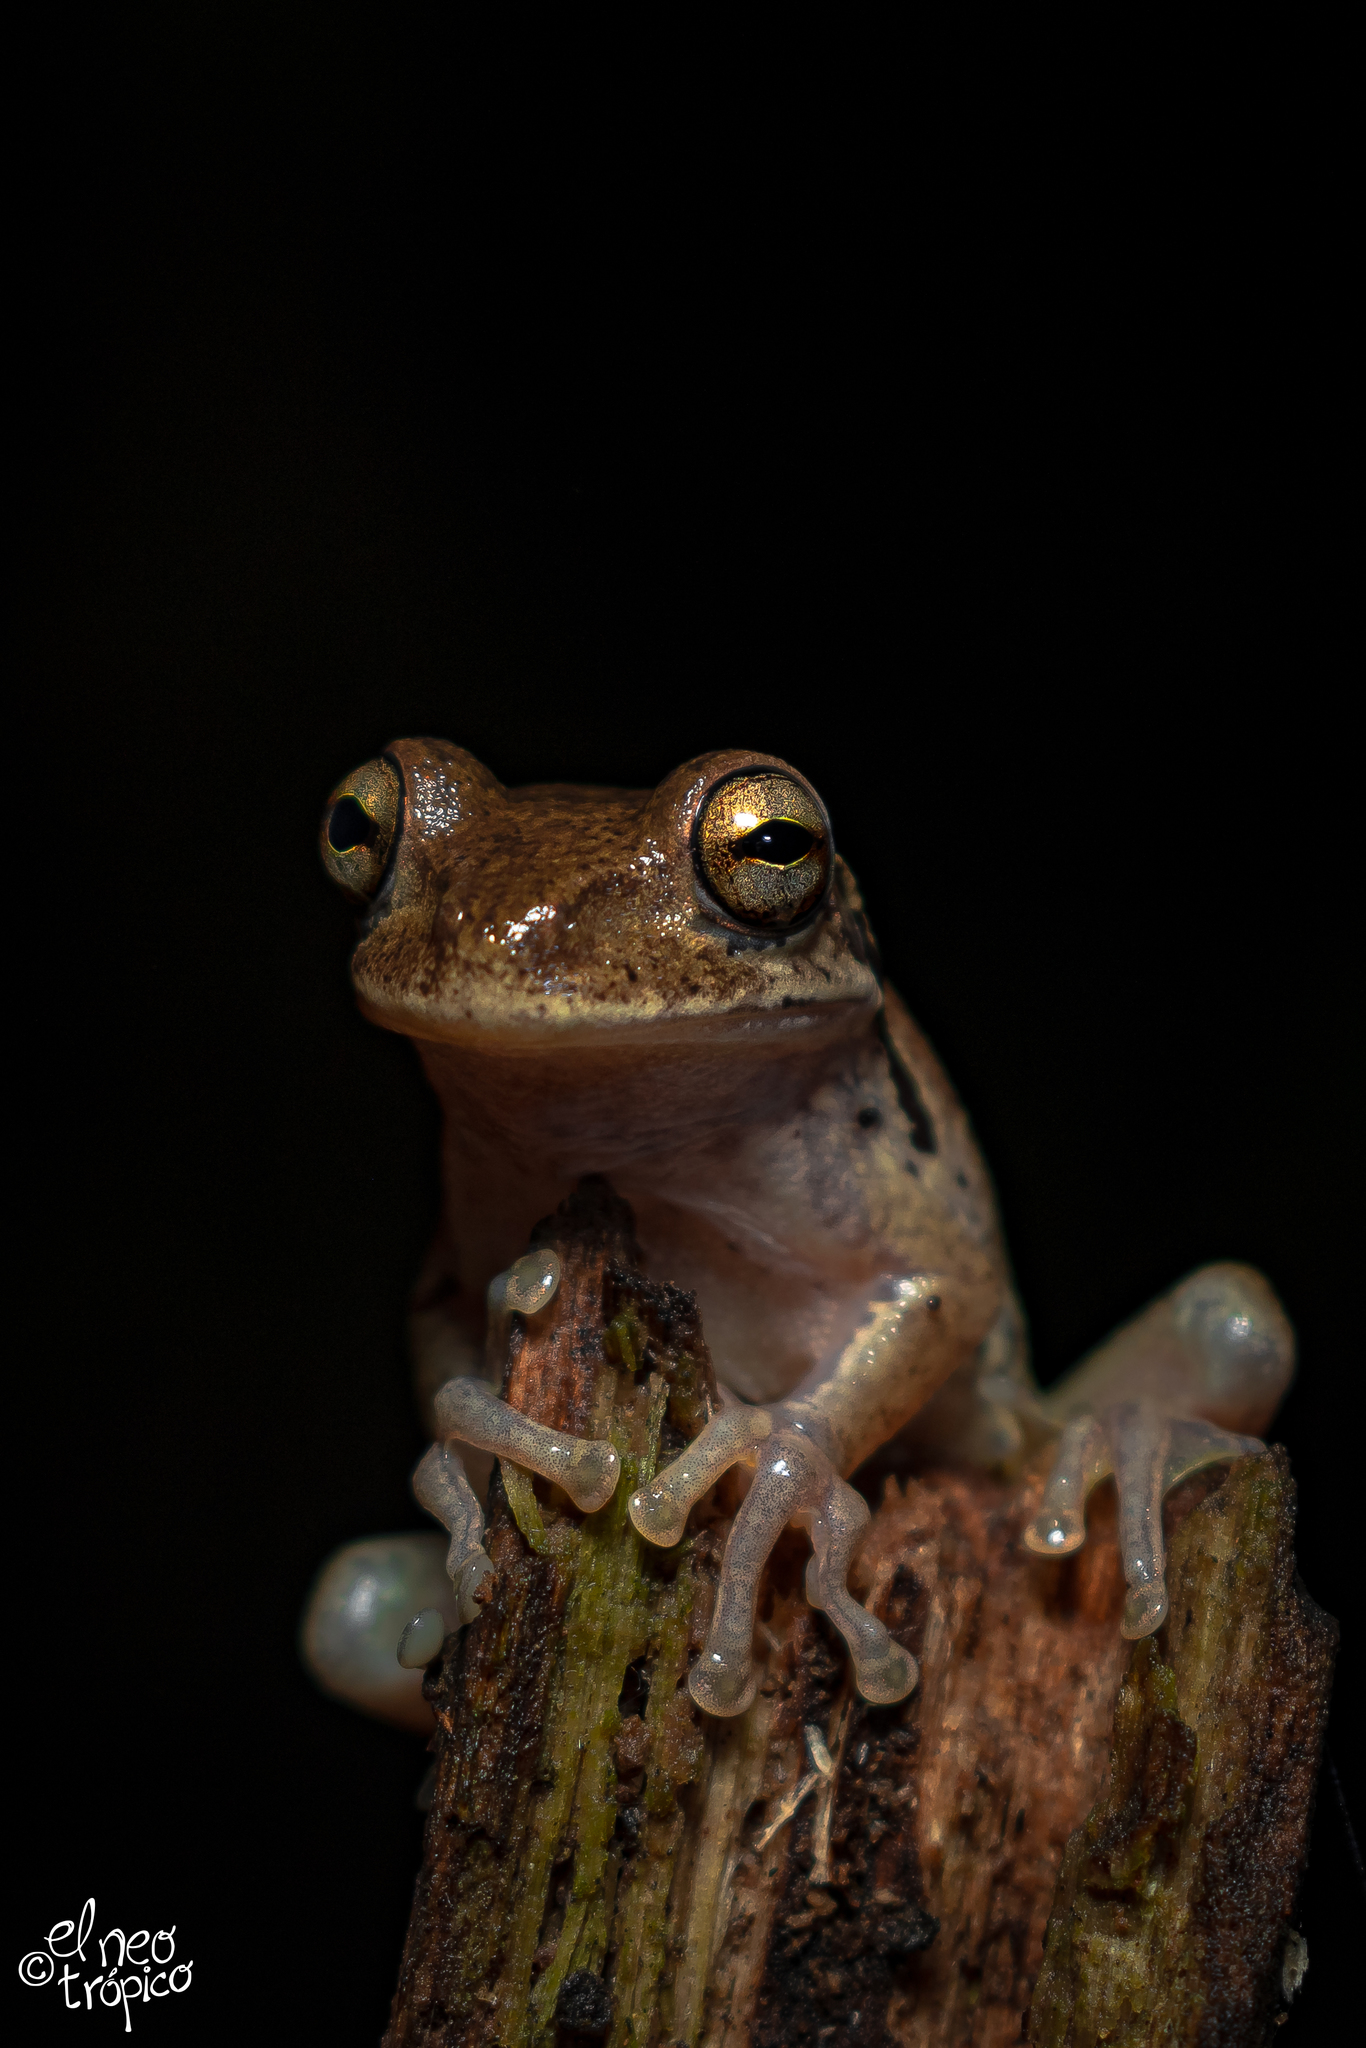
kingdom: Animalia
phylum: Chordata
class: Amphibia
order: Anura
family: Hylidae
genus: Smilisca
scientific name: Smilisca baudinii
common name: Mexican smilisca
